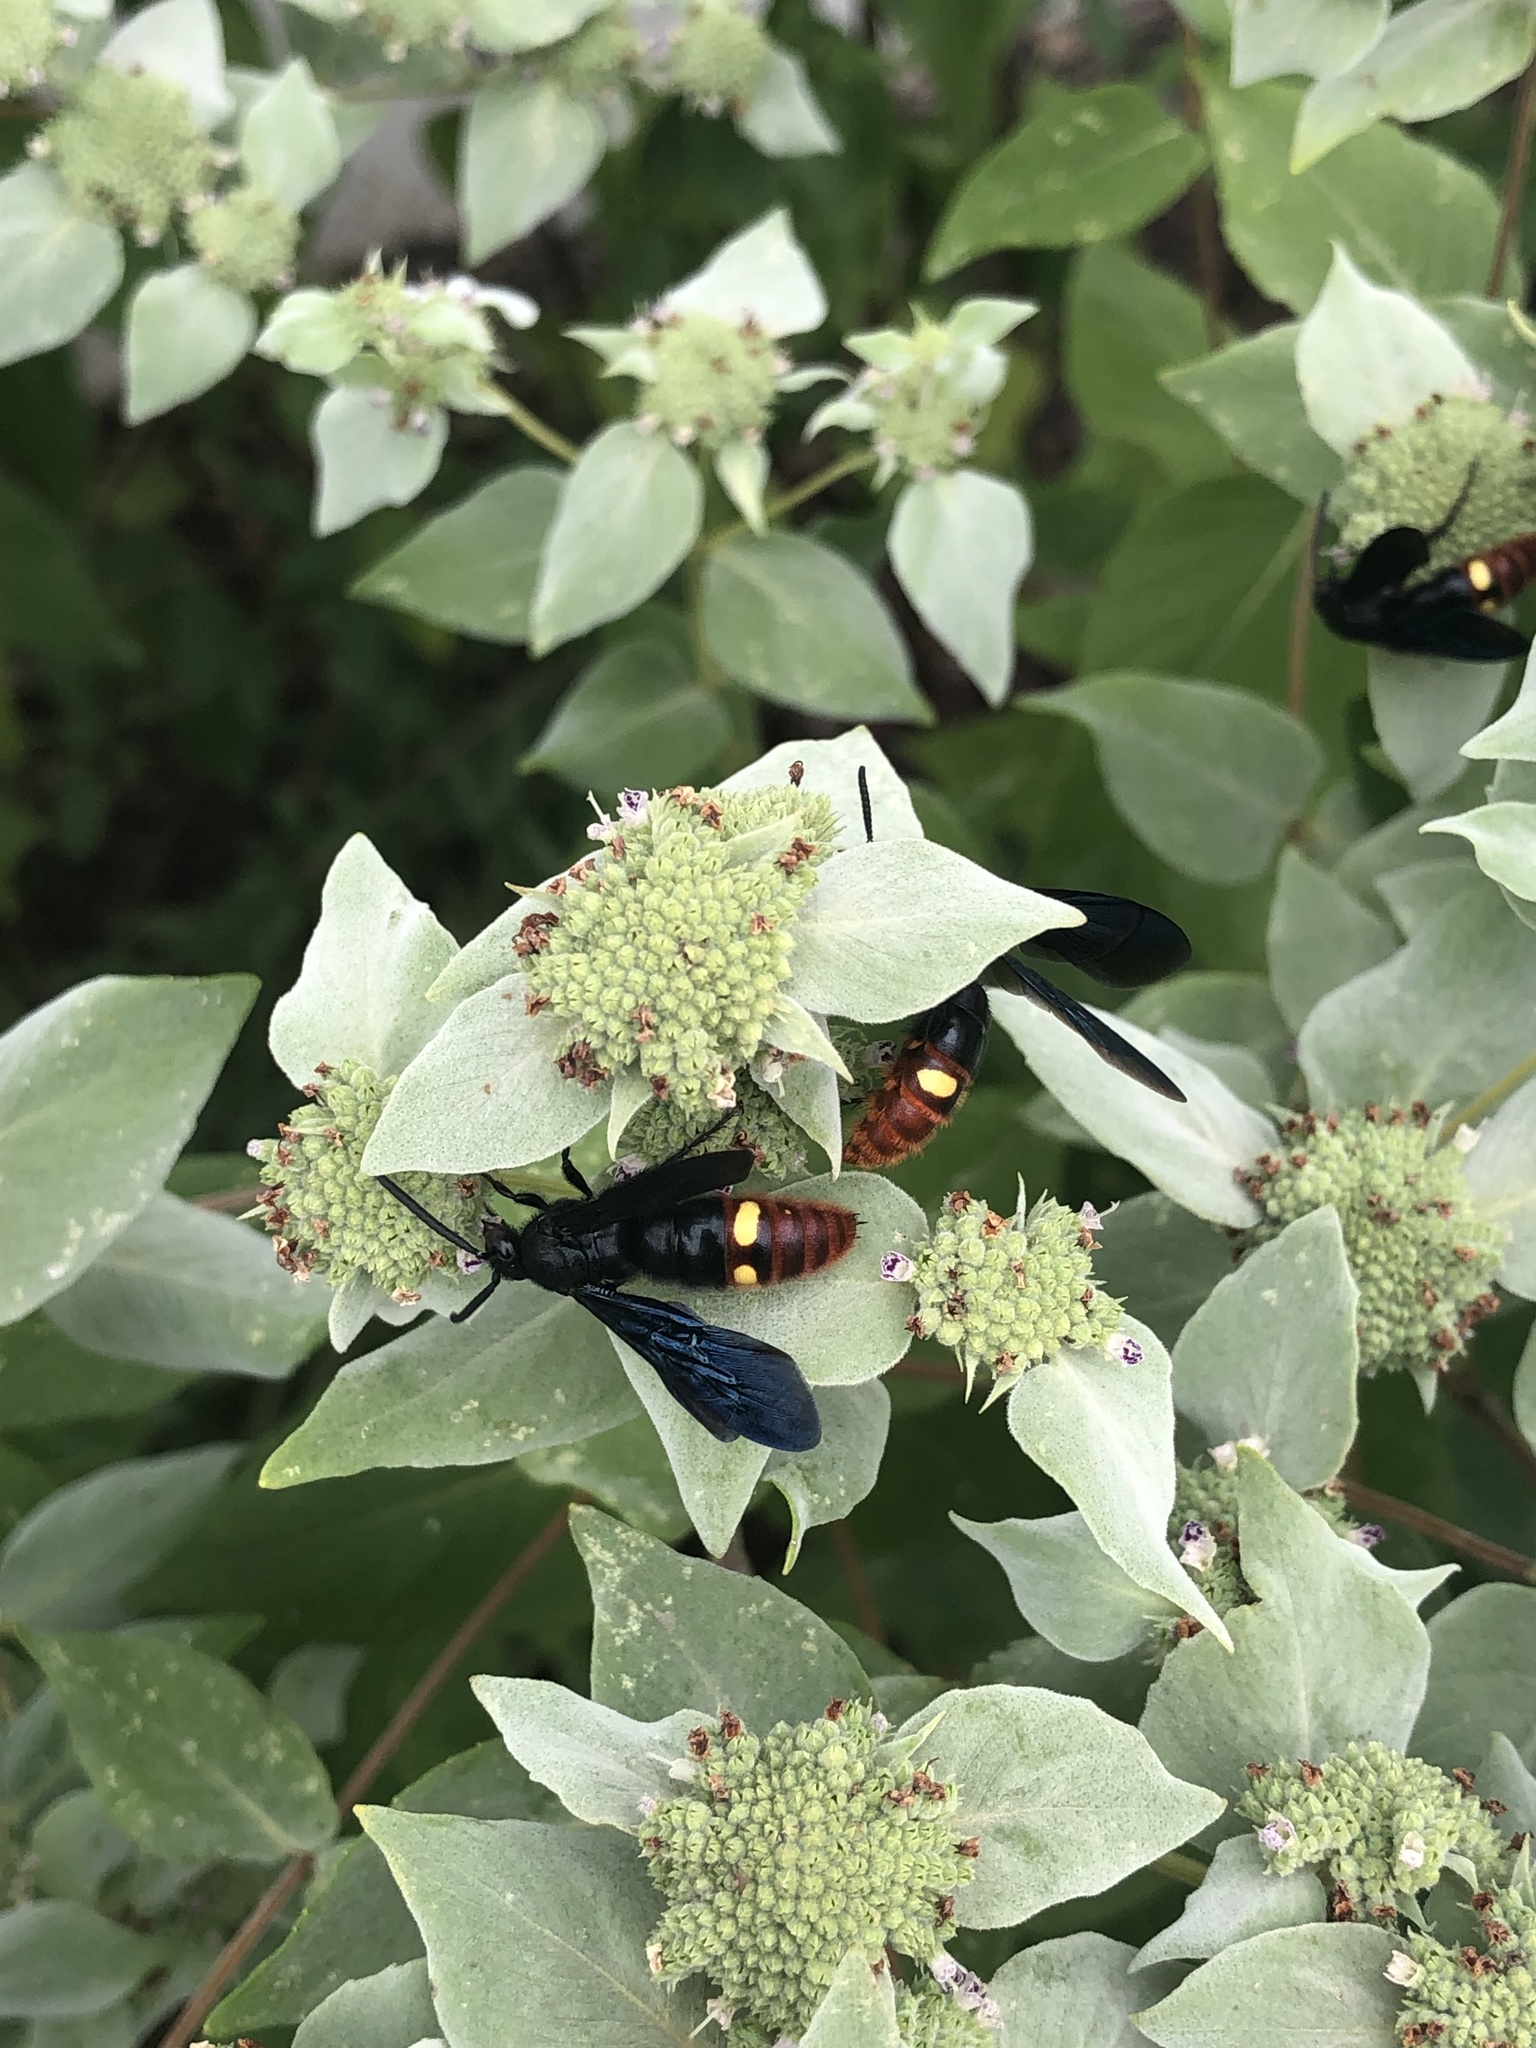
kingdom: Animalia
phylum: Arthropoda
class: Insecta
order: Hymenoptera
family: Scoliidae
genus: Scolia
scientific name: Scolia dubia
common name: Blue-winged scoliid wasp
